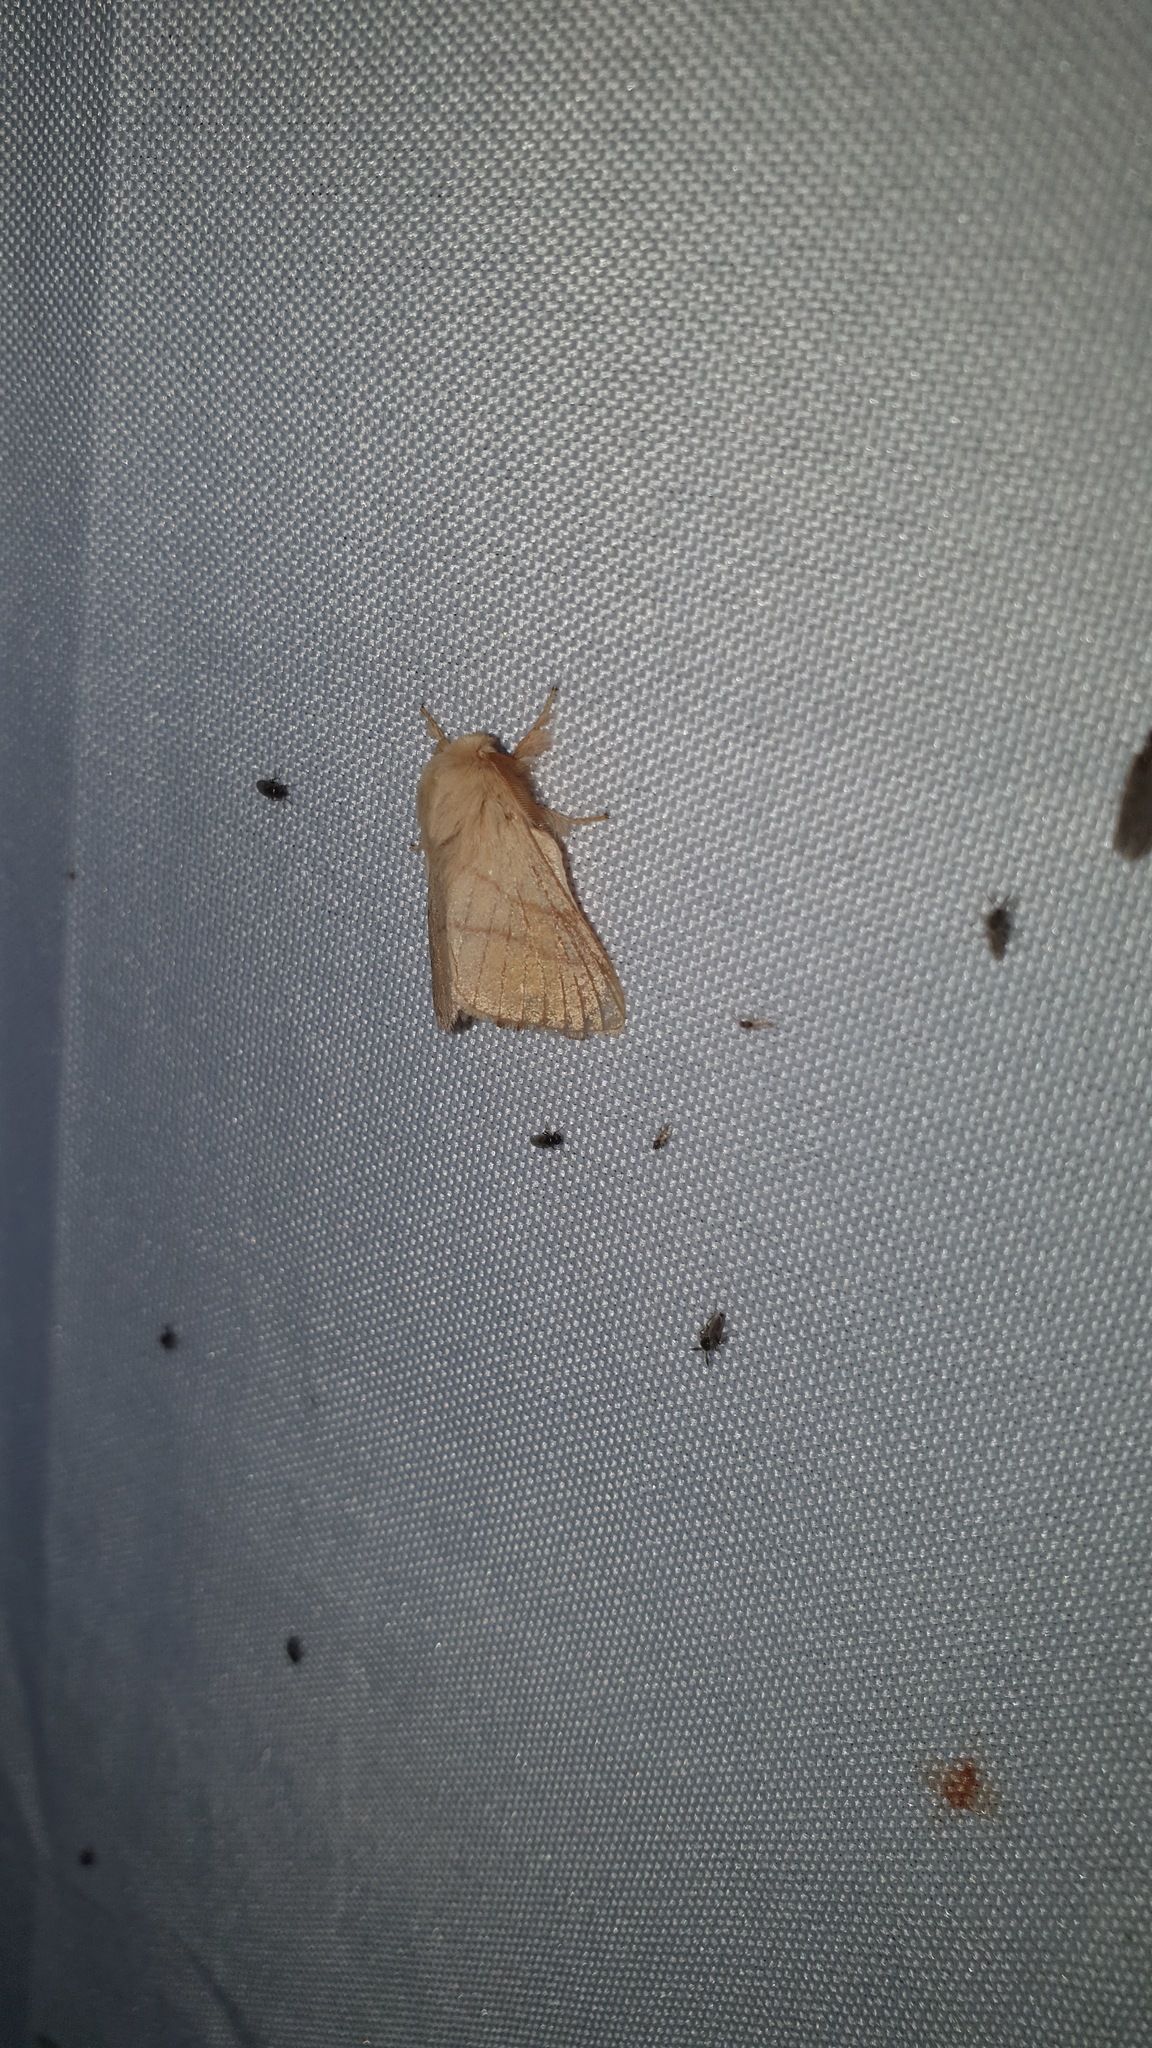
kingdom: Animalia
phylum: Arthropoda
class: Insecta
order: Lepidoptera
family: Lasiocampidae
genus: Malacosoma
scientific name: Malacosoma neustria
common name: The lackey
